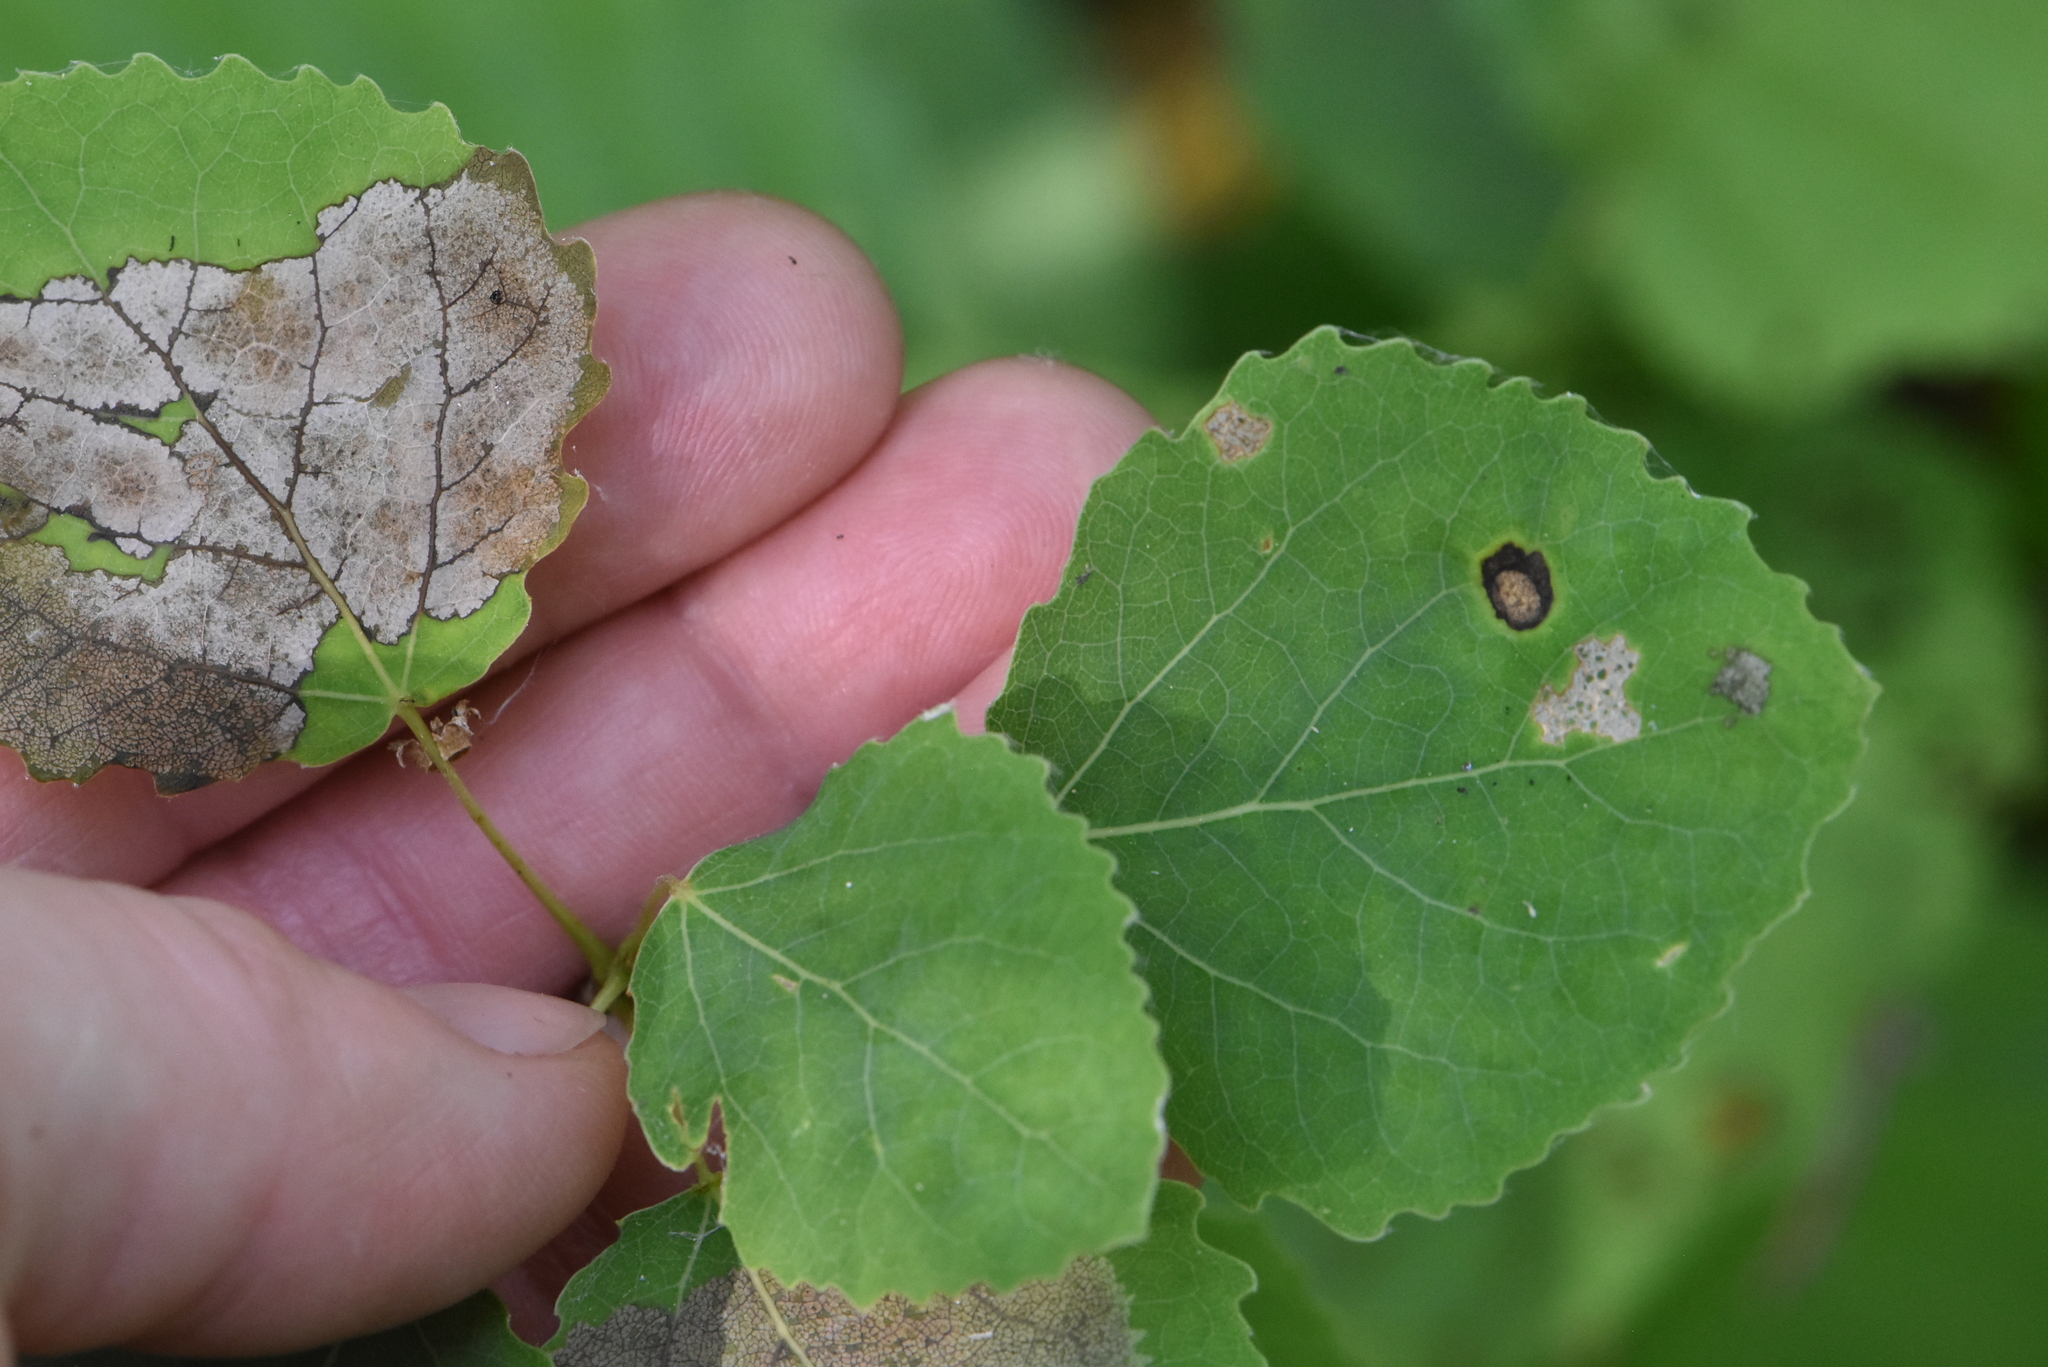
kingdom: Plantae
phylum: Tracheophyta
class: Magnoliopsida
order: Malpighiales
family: Salicaceae
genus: Populus
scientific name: Populus tremula
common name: European aspen
